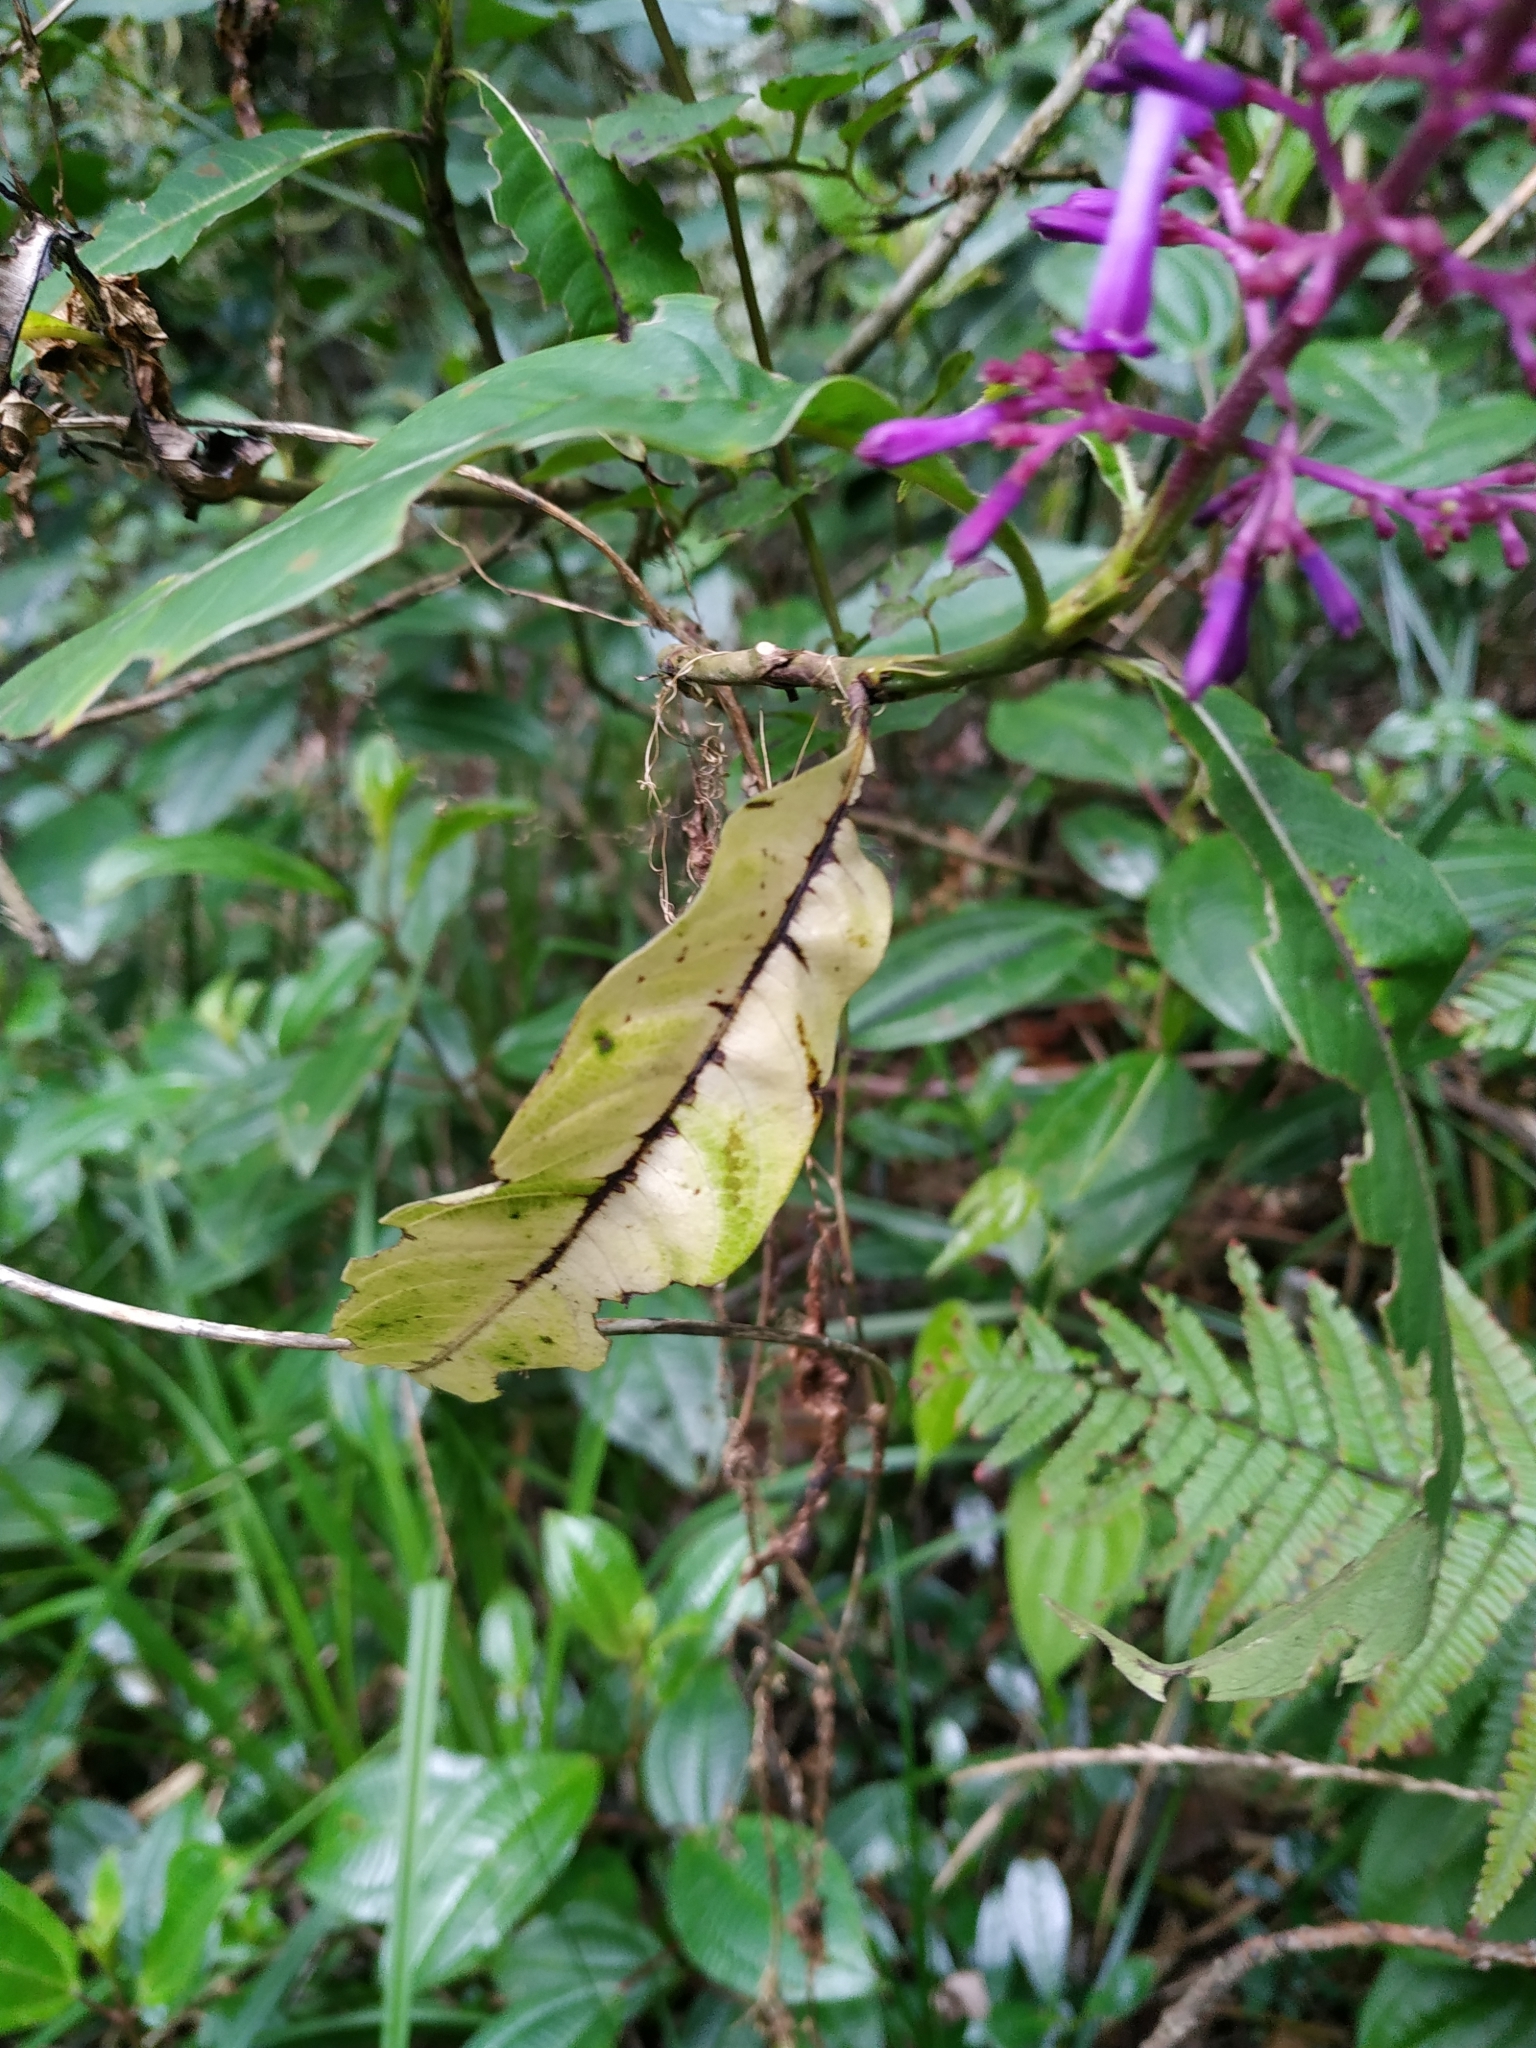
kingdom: Plantae
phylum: Tracheophyta
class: Magnoliopsida
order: Gentianales
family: Rubiaceae
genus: Palicourea
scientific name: Palicourea angustifolia
